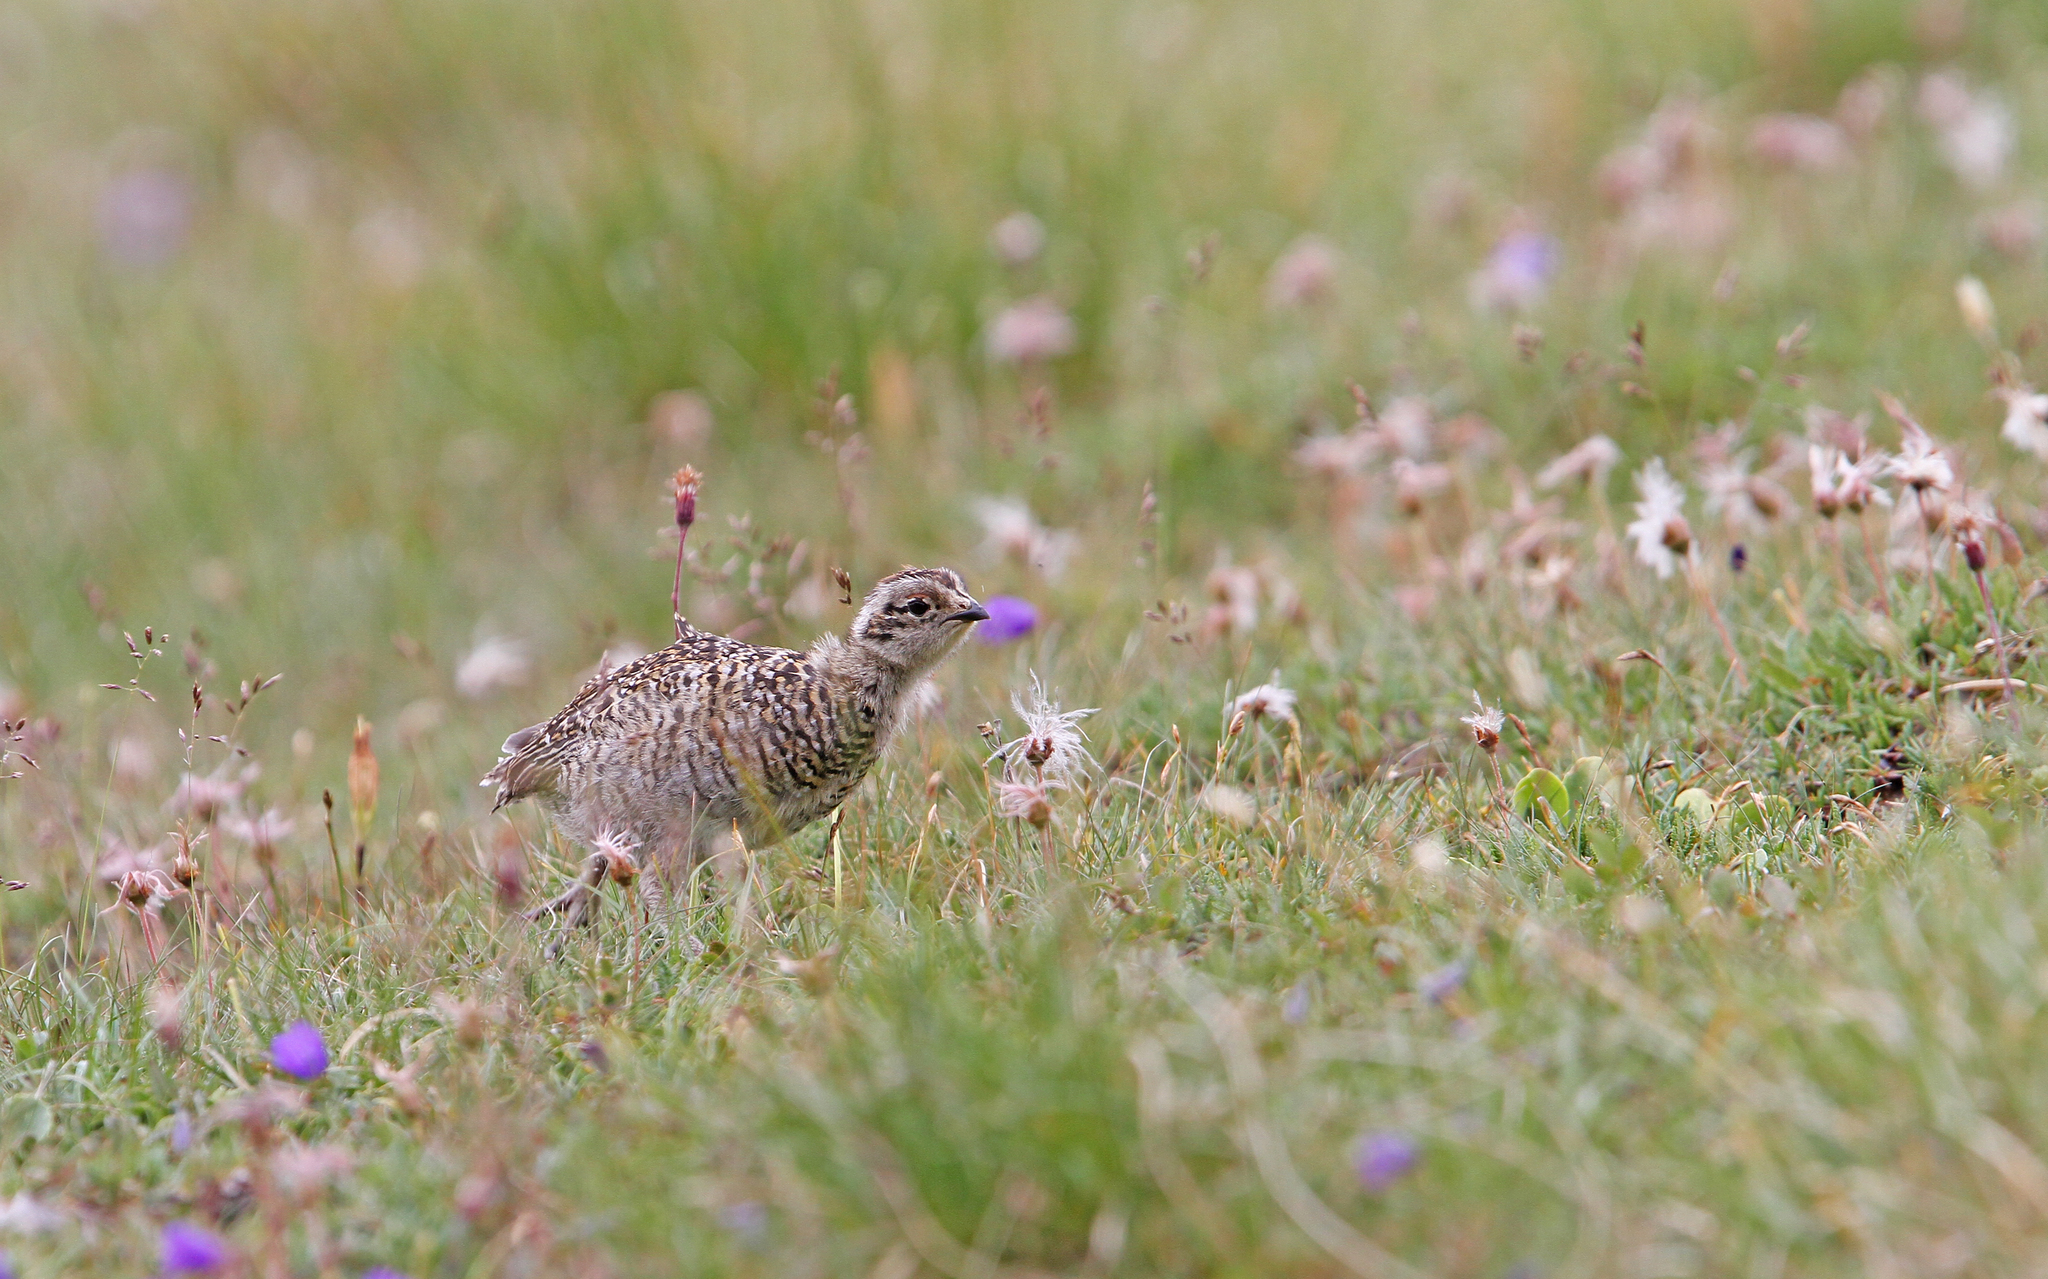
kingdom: Animalia
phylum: Chordata
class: Aves
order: Galliformes
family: Phasianidae
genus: Lagopus
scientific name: Lagopus muta
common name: Rock ptarmigan
